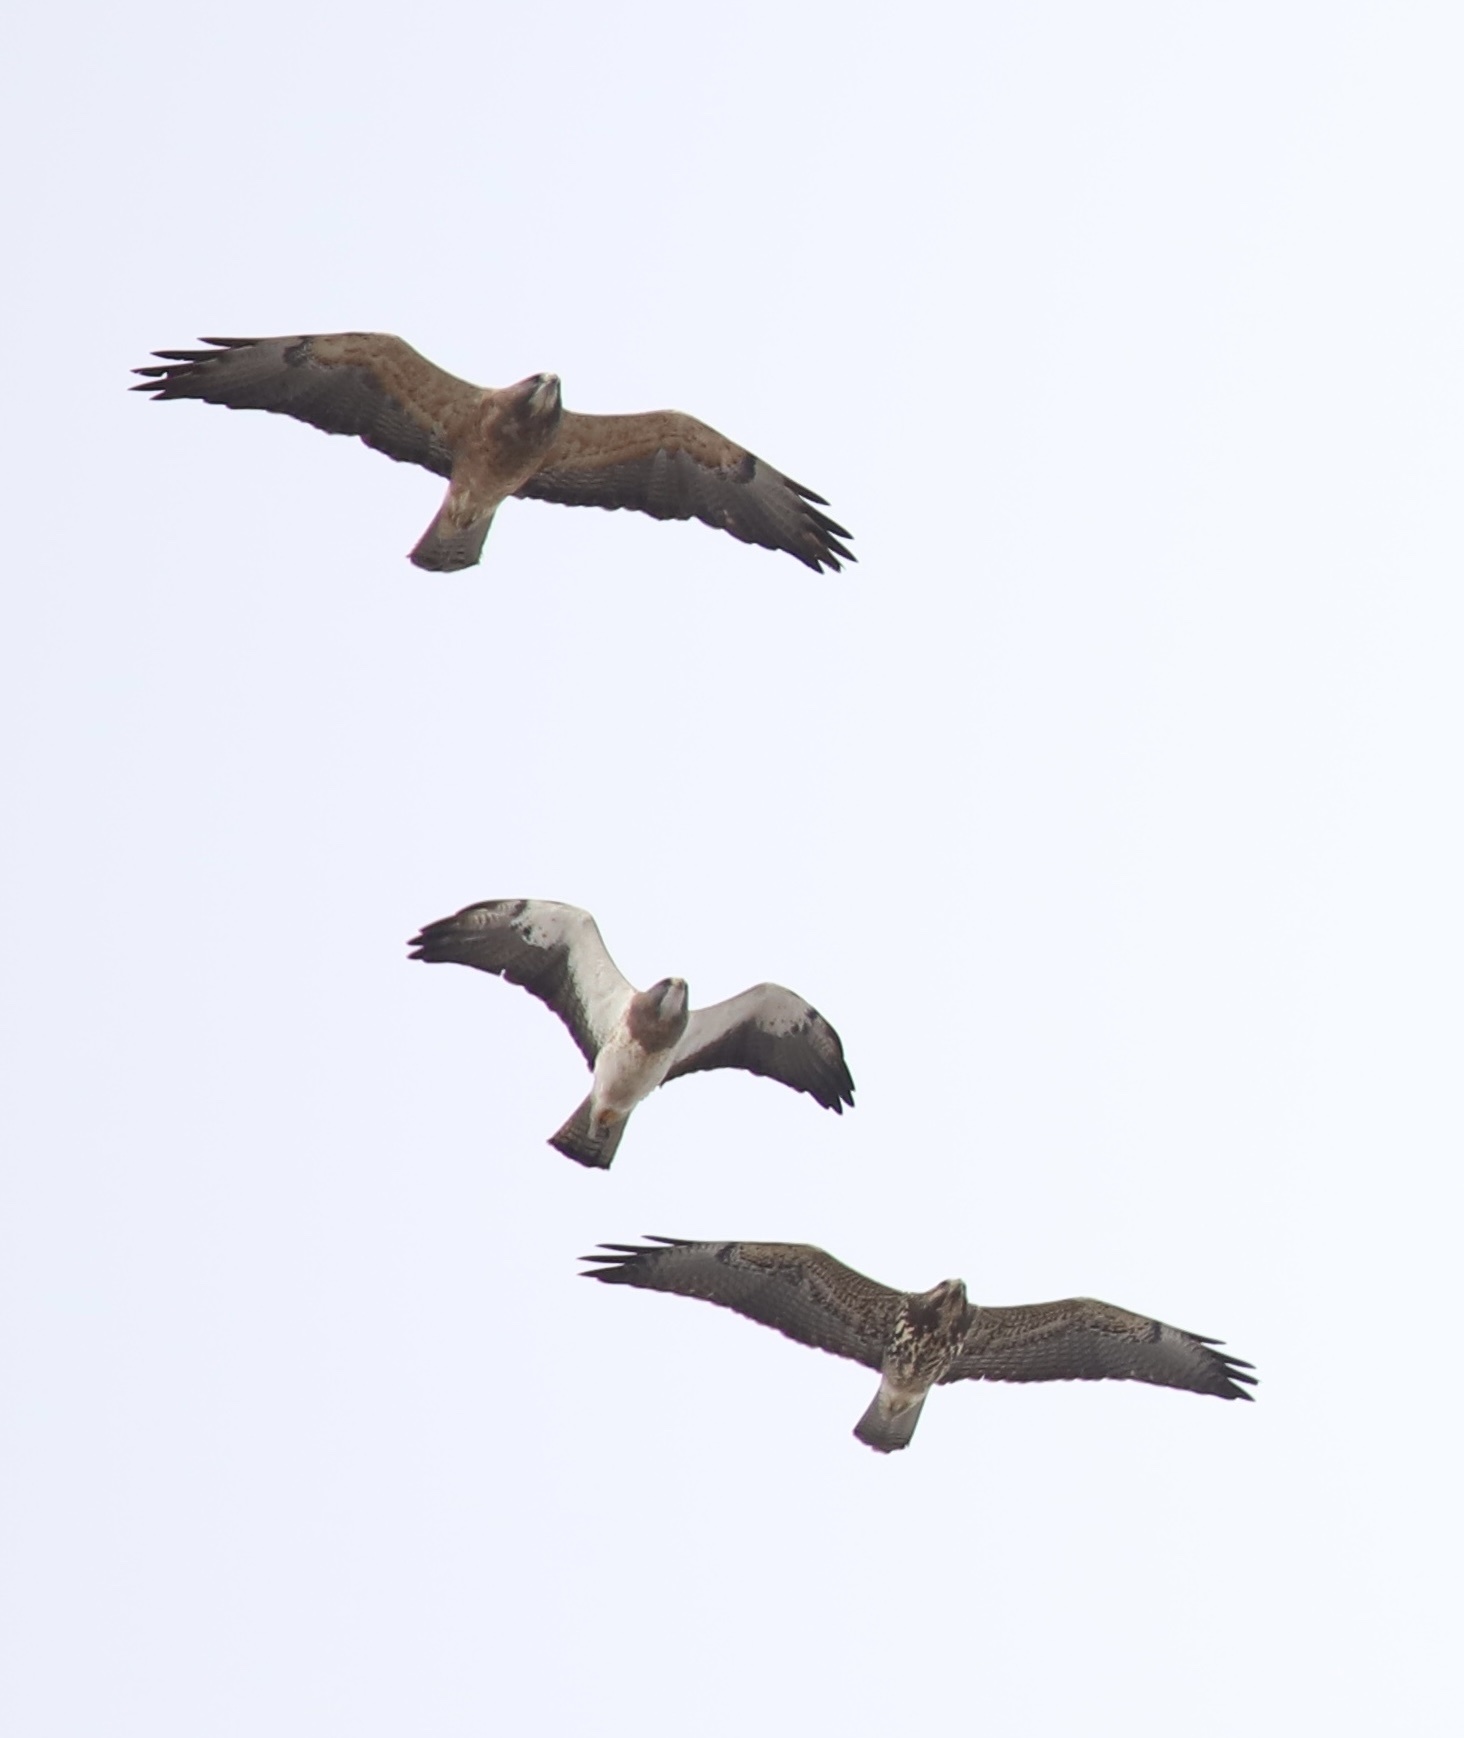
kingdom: Animalia
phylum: Chordata
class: Aves
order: Accipitriformes
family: Accipitridae
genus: Buteo
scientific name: Buteo swainsoni
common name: Swainson's hawk
